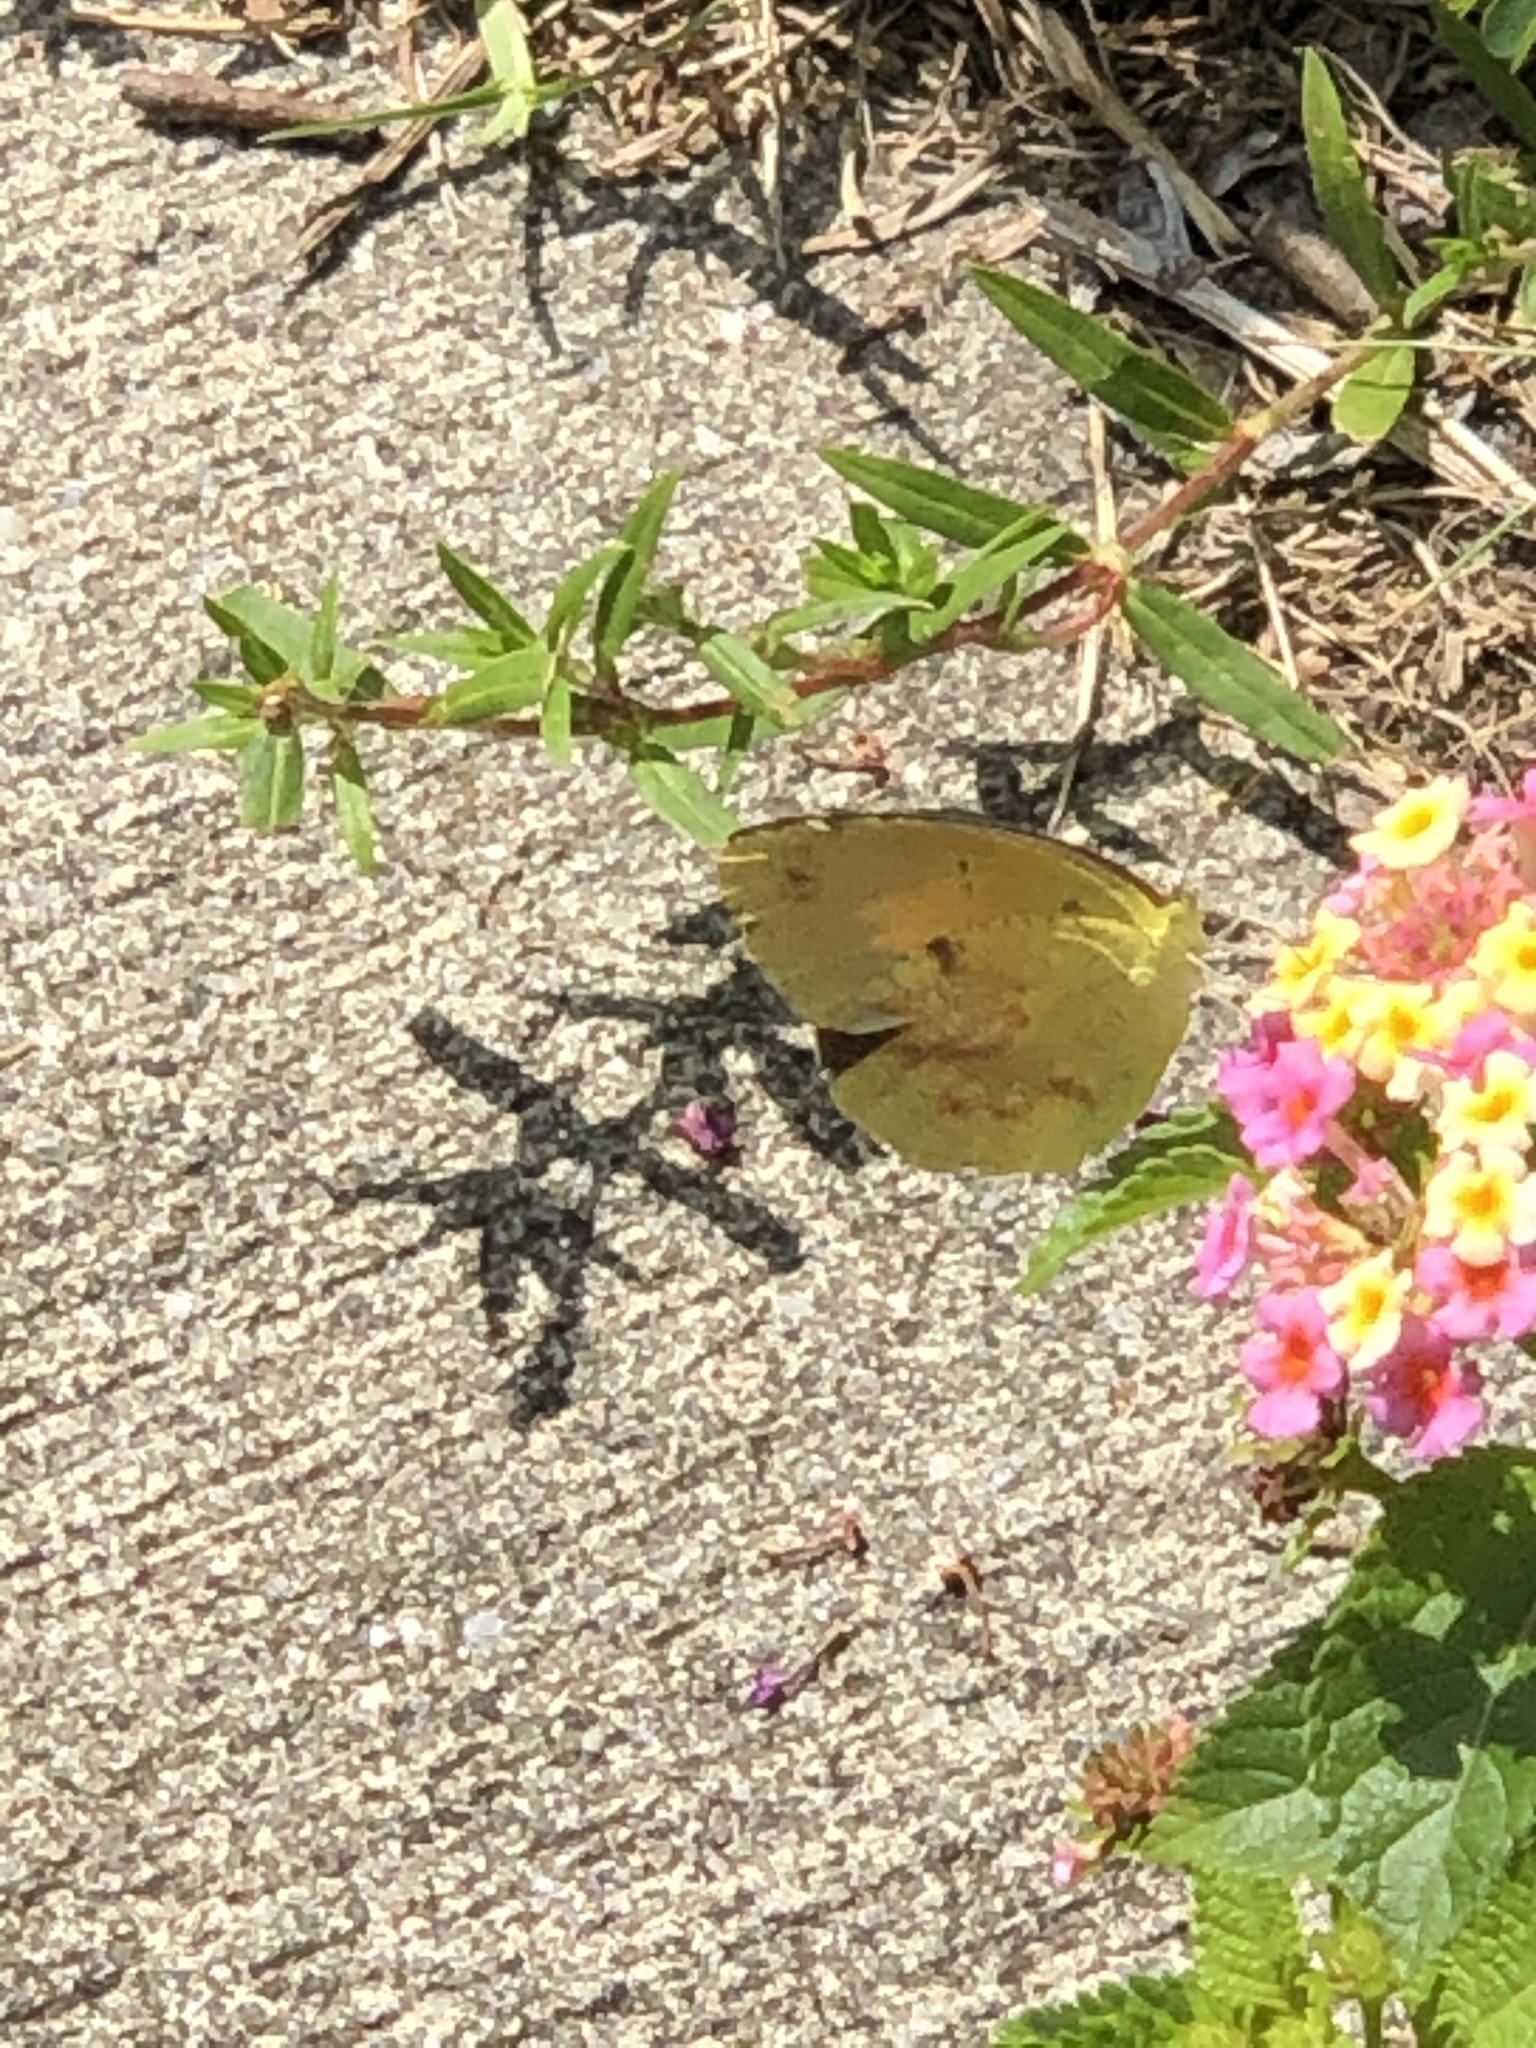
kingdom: Animalia
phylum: Arthropoda
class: Insecta
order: Lepidoptera
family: Pieridae
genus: Abaeis
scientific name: Abaeis nicippe
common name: Sleepy orange
